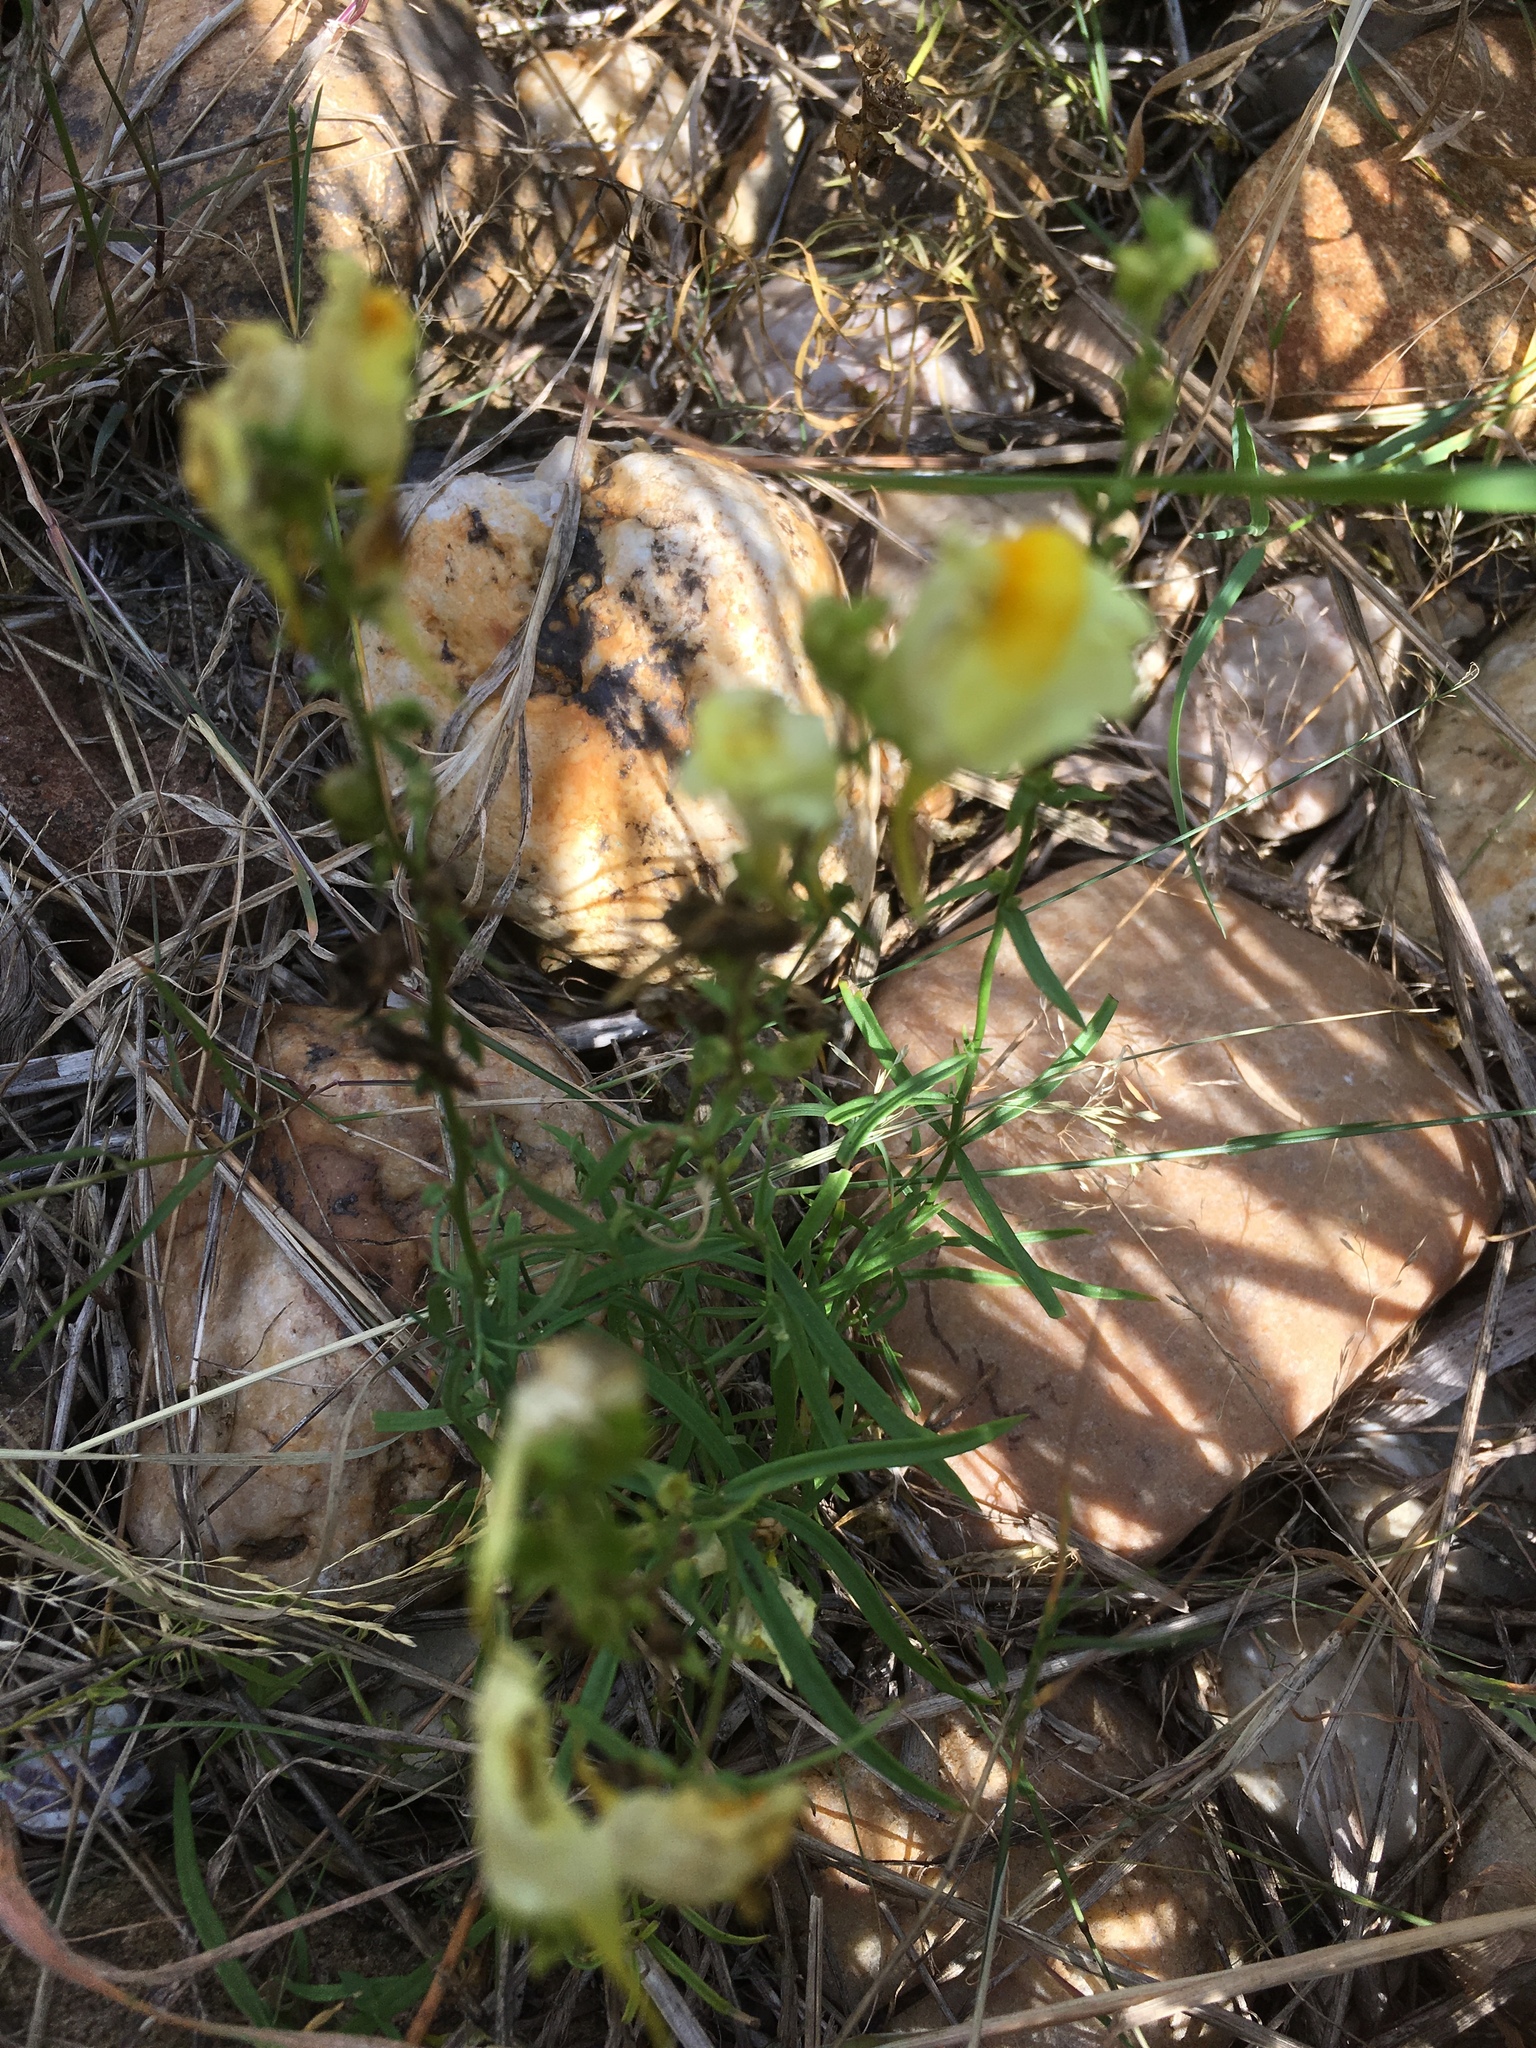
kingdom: Plantae
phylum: Tracheophyta
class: Magnoliopsida
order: Lamiales
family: Plantaginaceae
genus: Linaria
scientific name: Linaria vulgaris
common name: Butter and eggs
